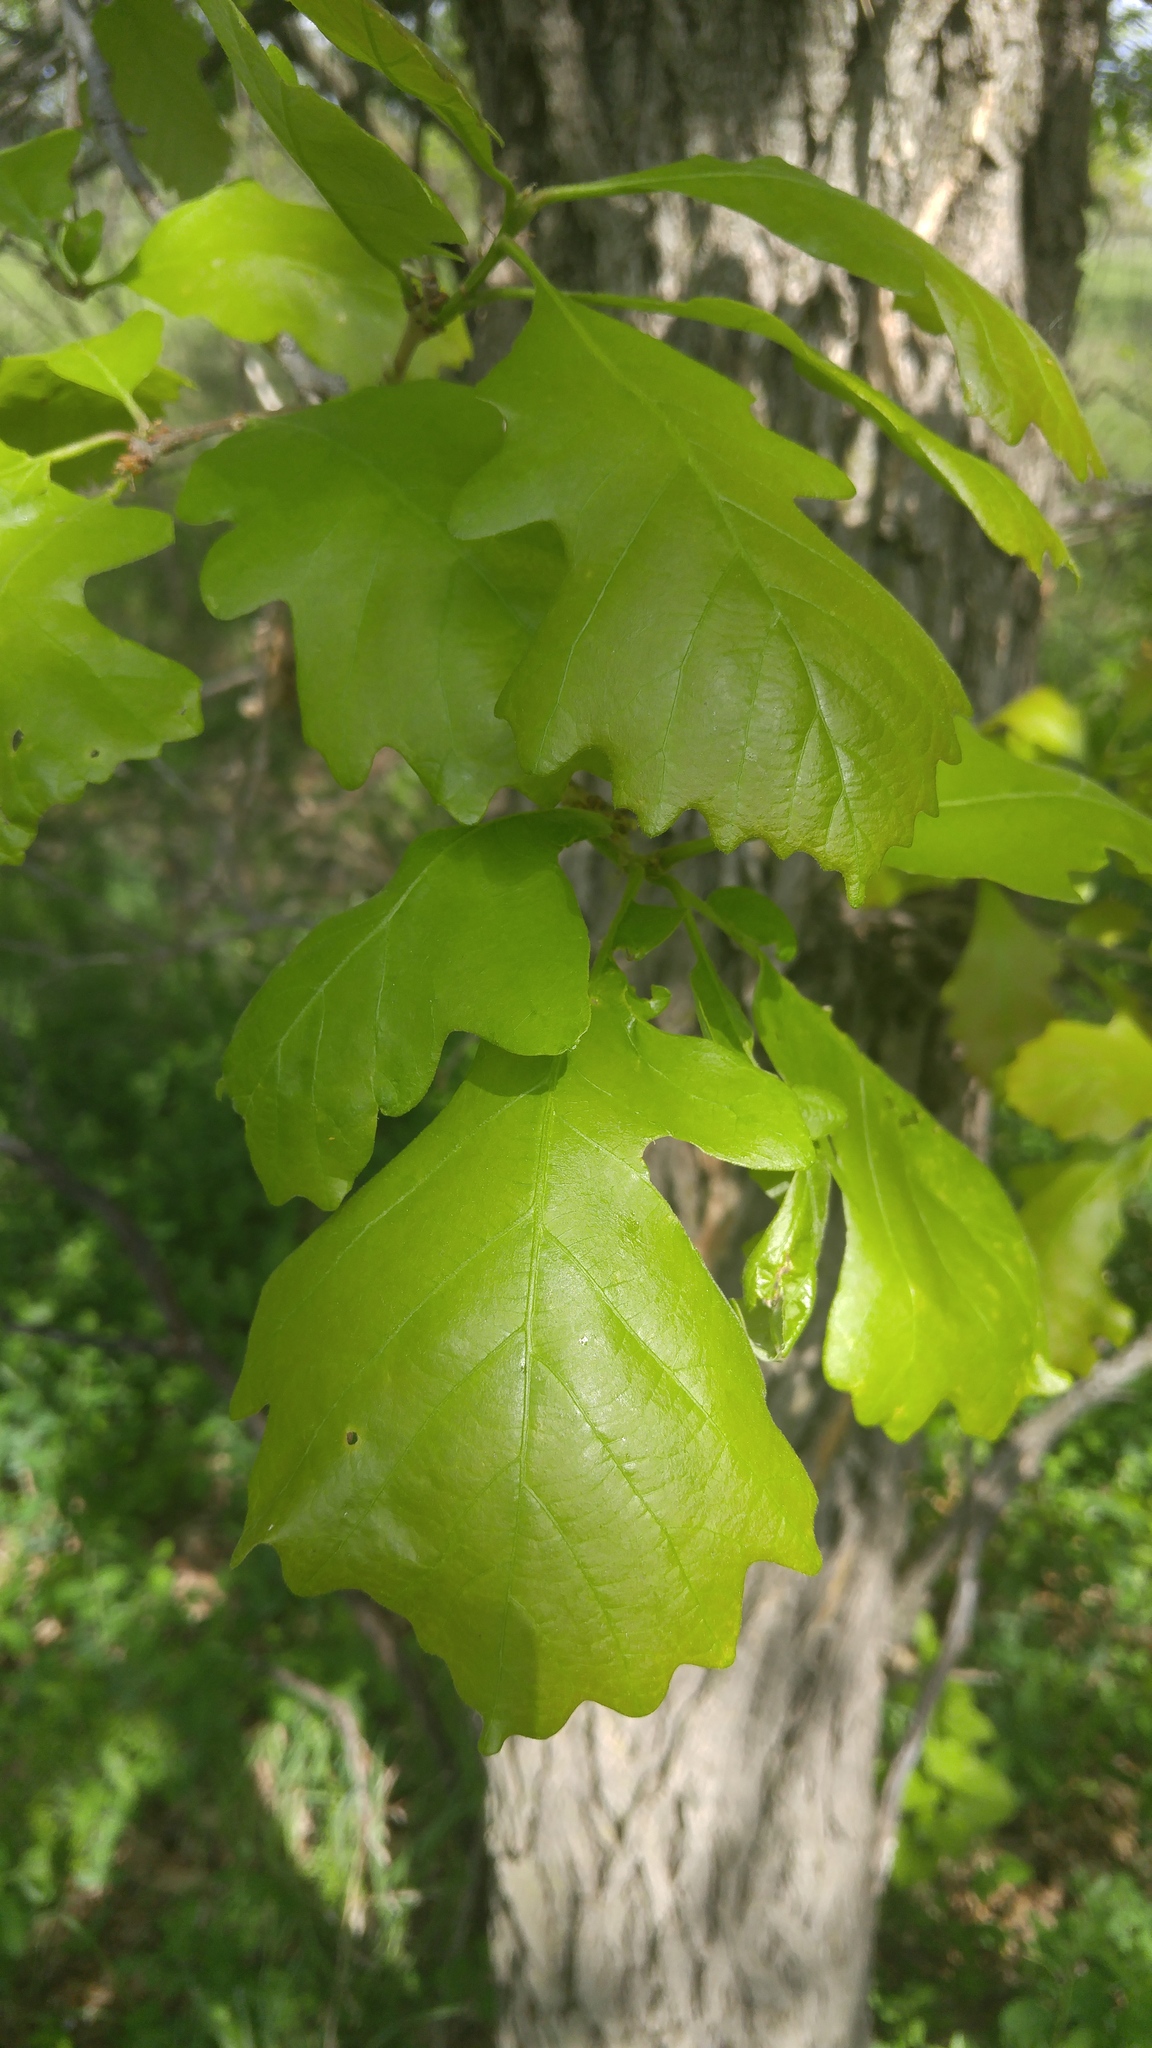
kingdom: Plantae
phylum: Tracheophyta
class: Magnoliopsida
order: Fagales
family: Fagaceae
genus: Quercus
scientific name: Quercus macrocarpa
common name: Bur oak
